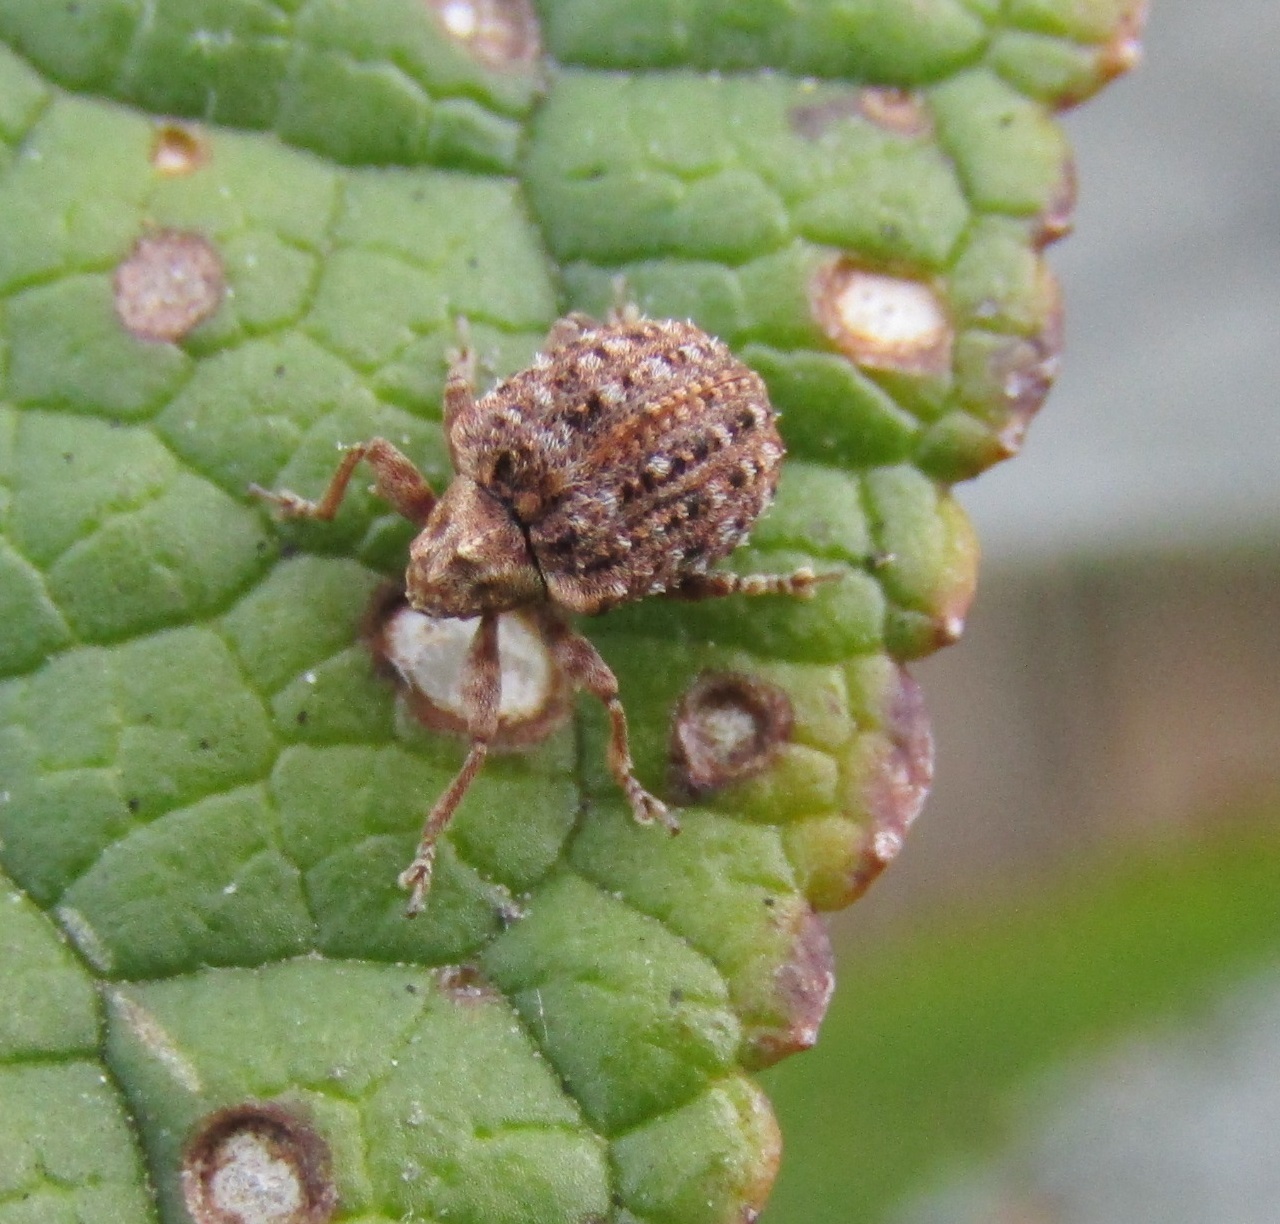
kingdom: Animalia
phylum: Arthropoda
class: Insecta
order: Coleoptera
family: Curculionidae
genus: Cleopus
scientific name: Cleopus japonicus
